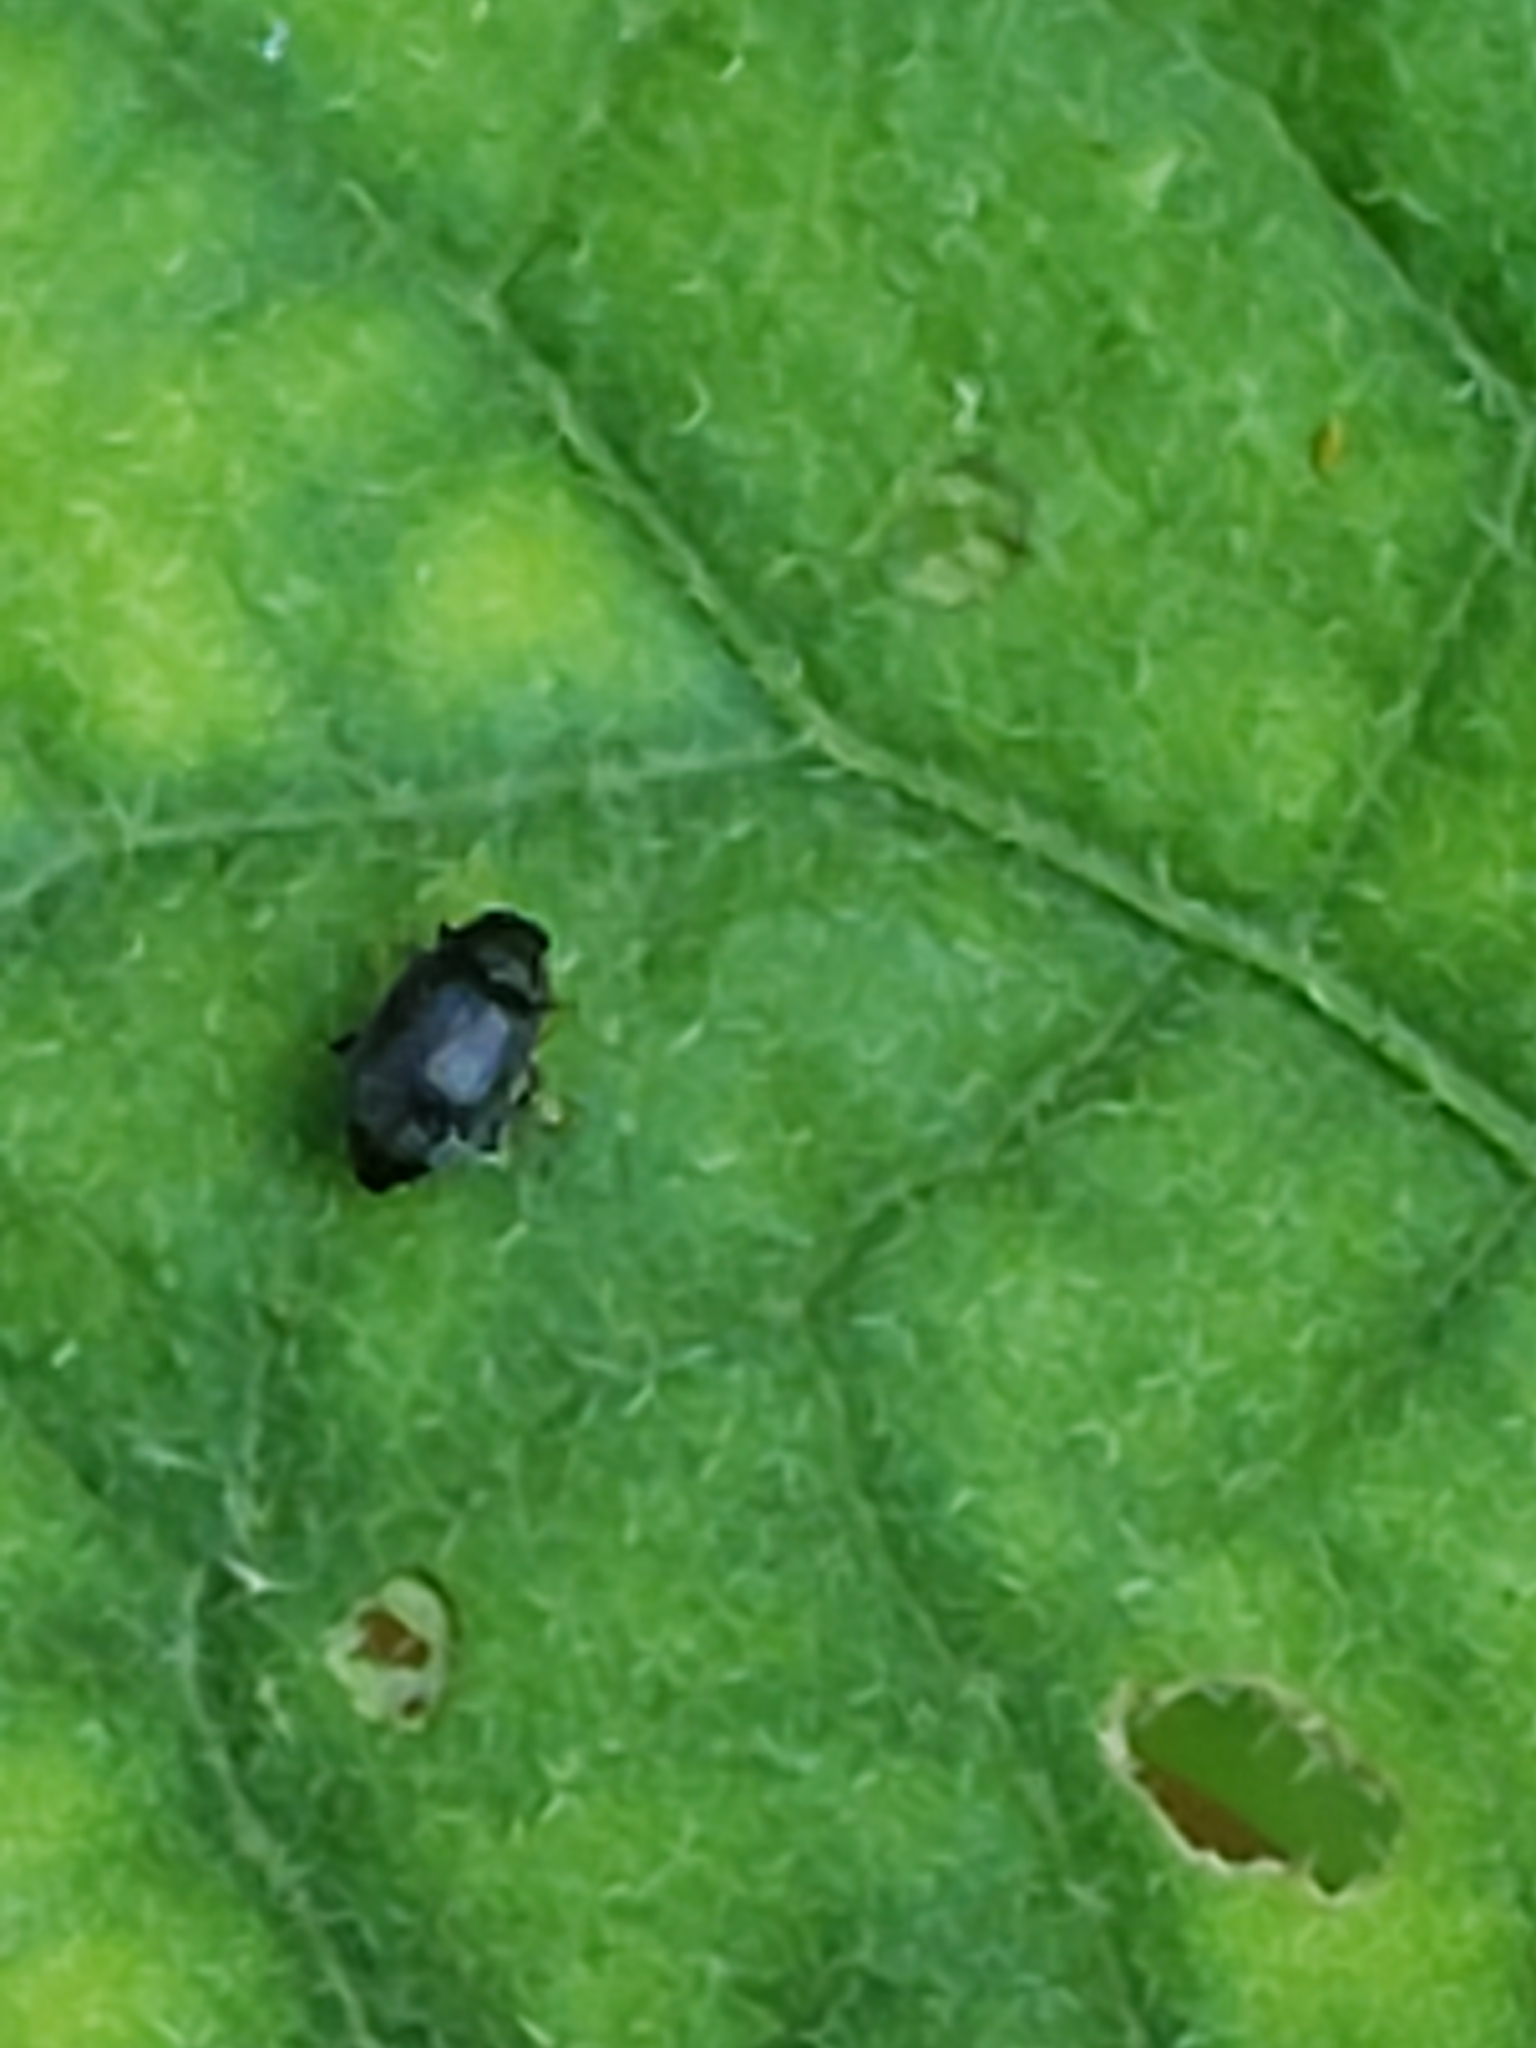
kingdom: Animalia
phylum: Arthropoda
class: Insecta
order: Coleoptera
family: Chrysomelidae
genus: Epitrix
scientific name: Epitrix fuscula
